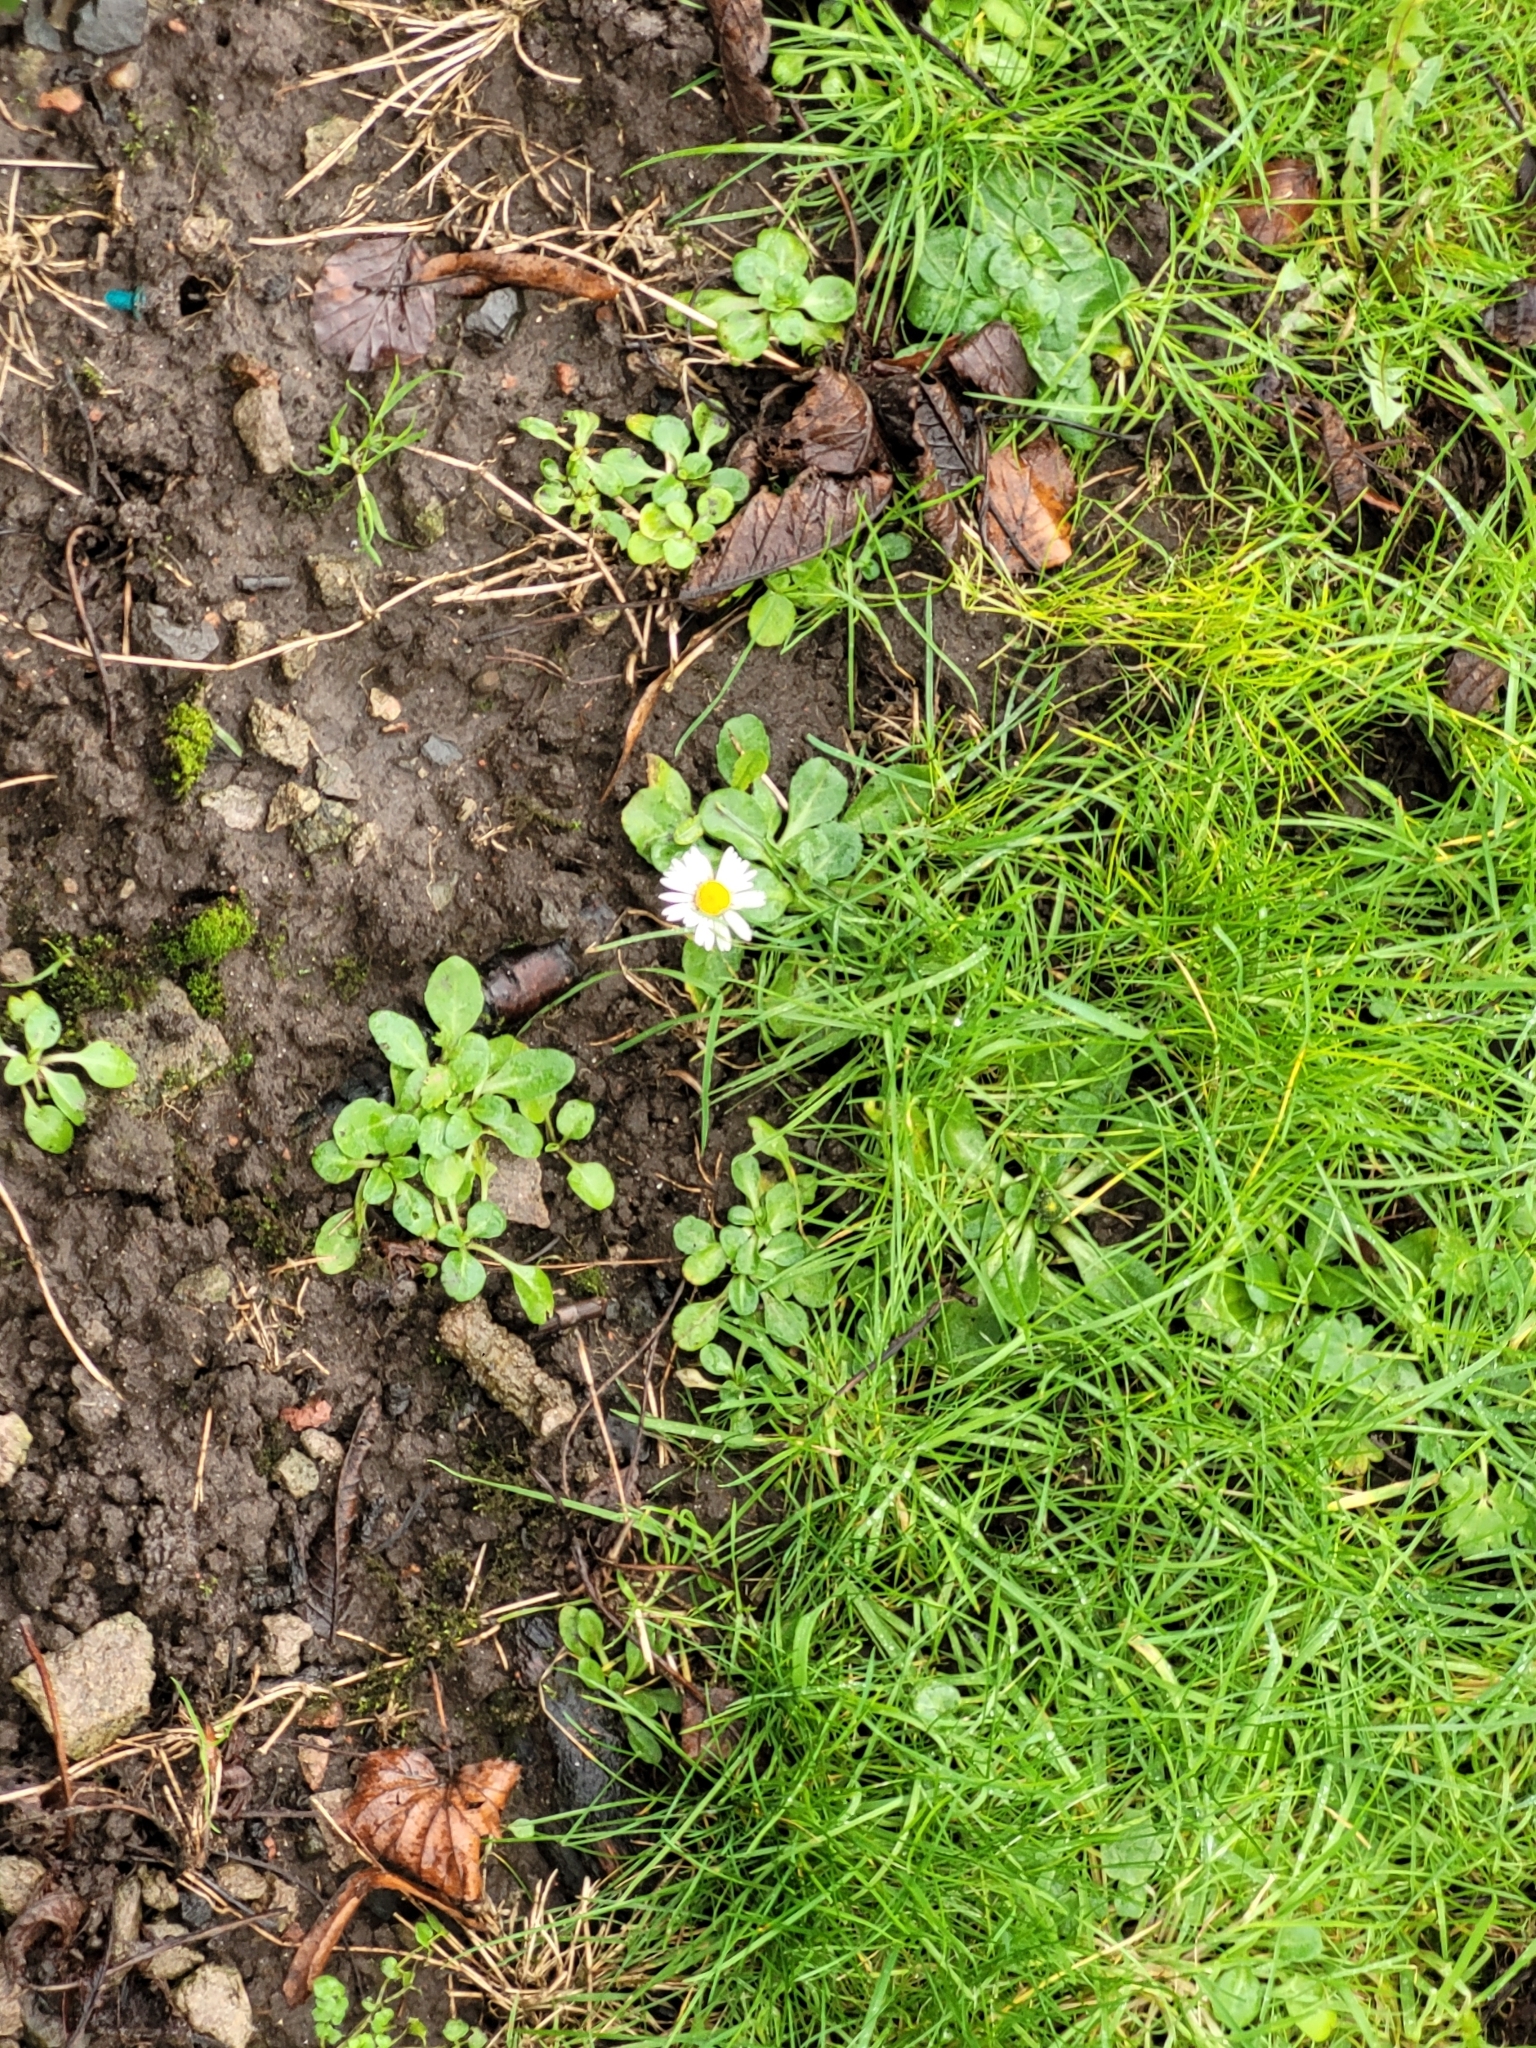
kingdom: Plantae
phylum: Tracheophyta
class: Magnoliopsida
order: Asterales
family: Asteraceae
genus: Bellis
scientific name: Bellis perennis
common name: Lawndaisy
